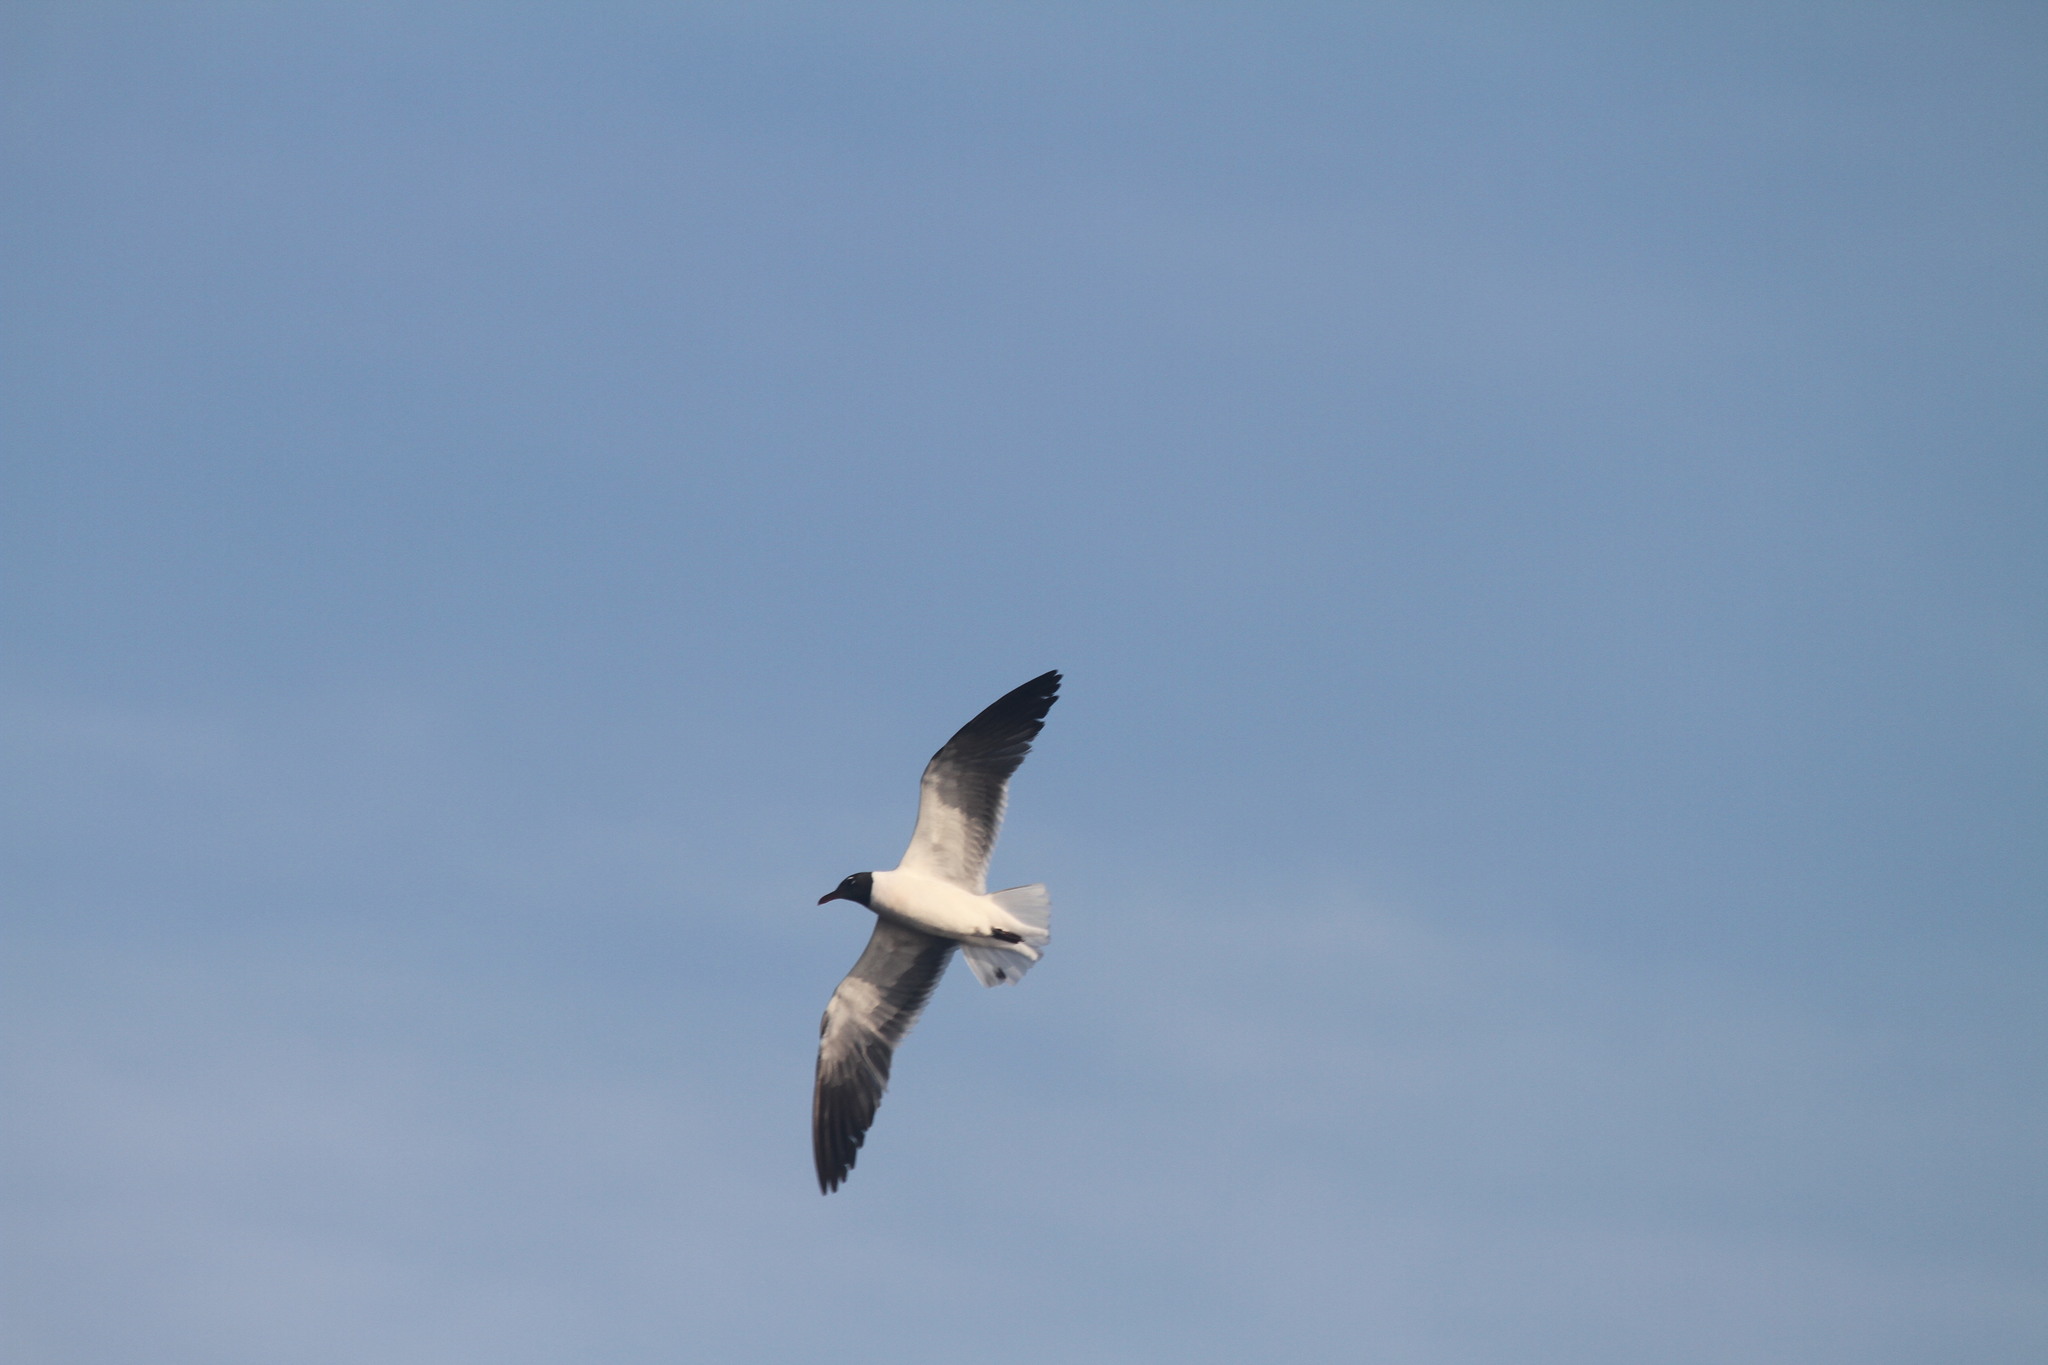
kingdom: Animalia
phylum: Chordata
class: Aves
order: Charadriiformes
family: Laridae
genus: Leucophaeus
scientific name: Leucophaeus atricilla
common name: Laughing gull
